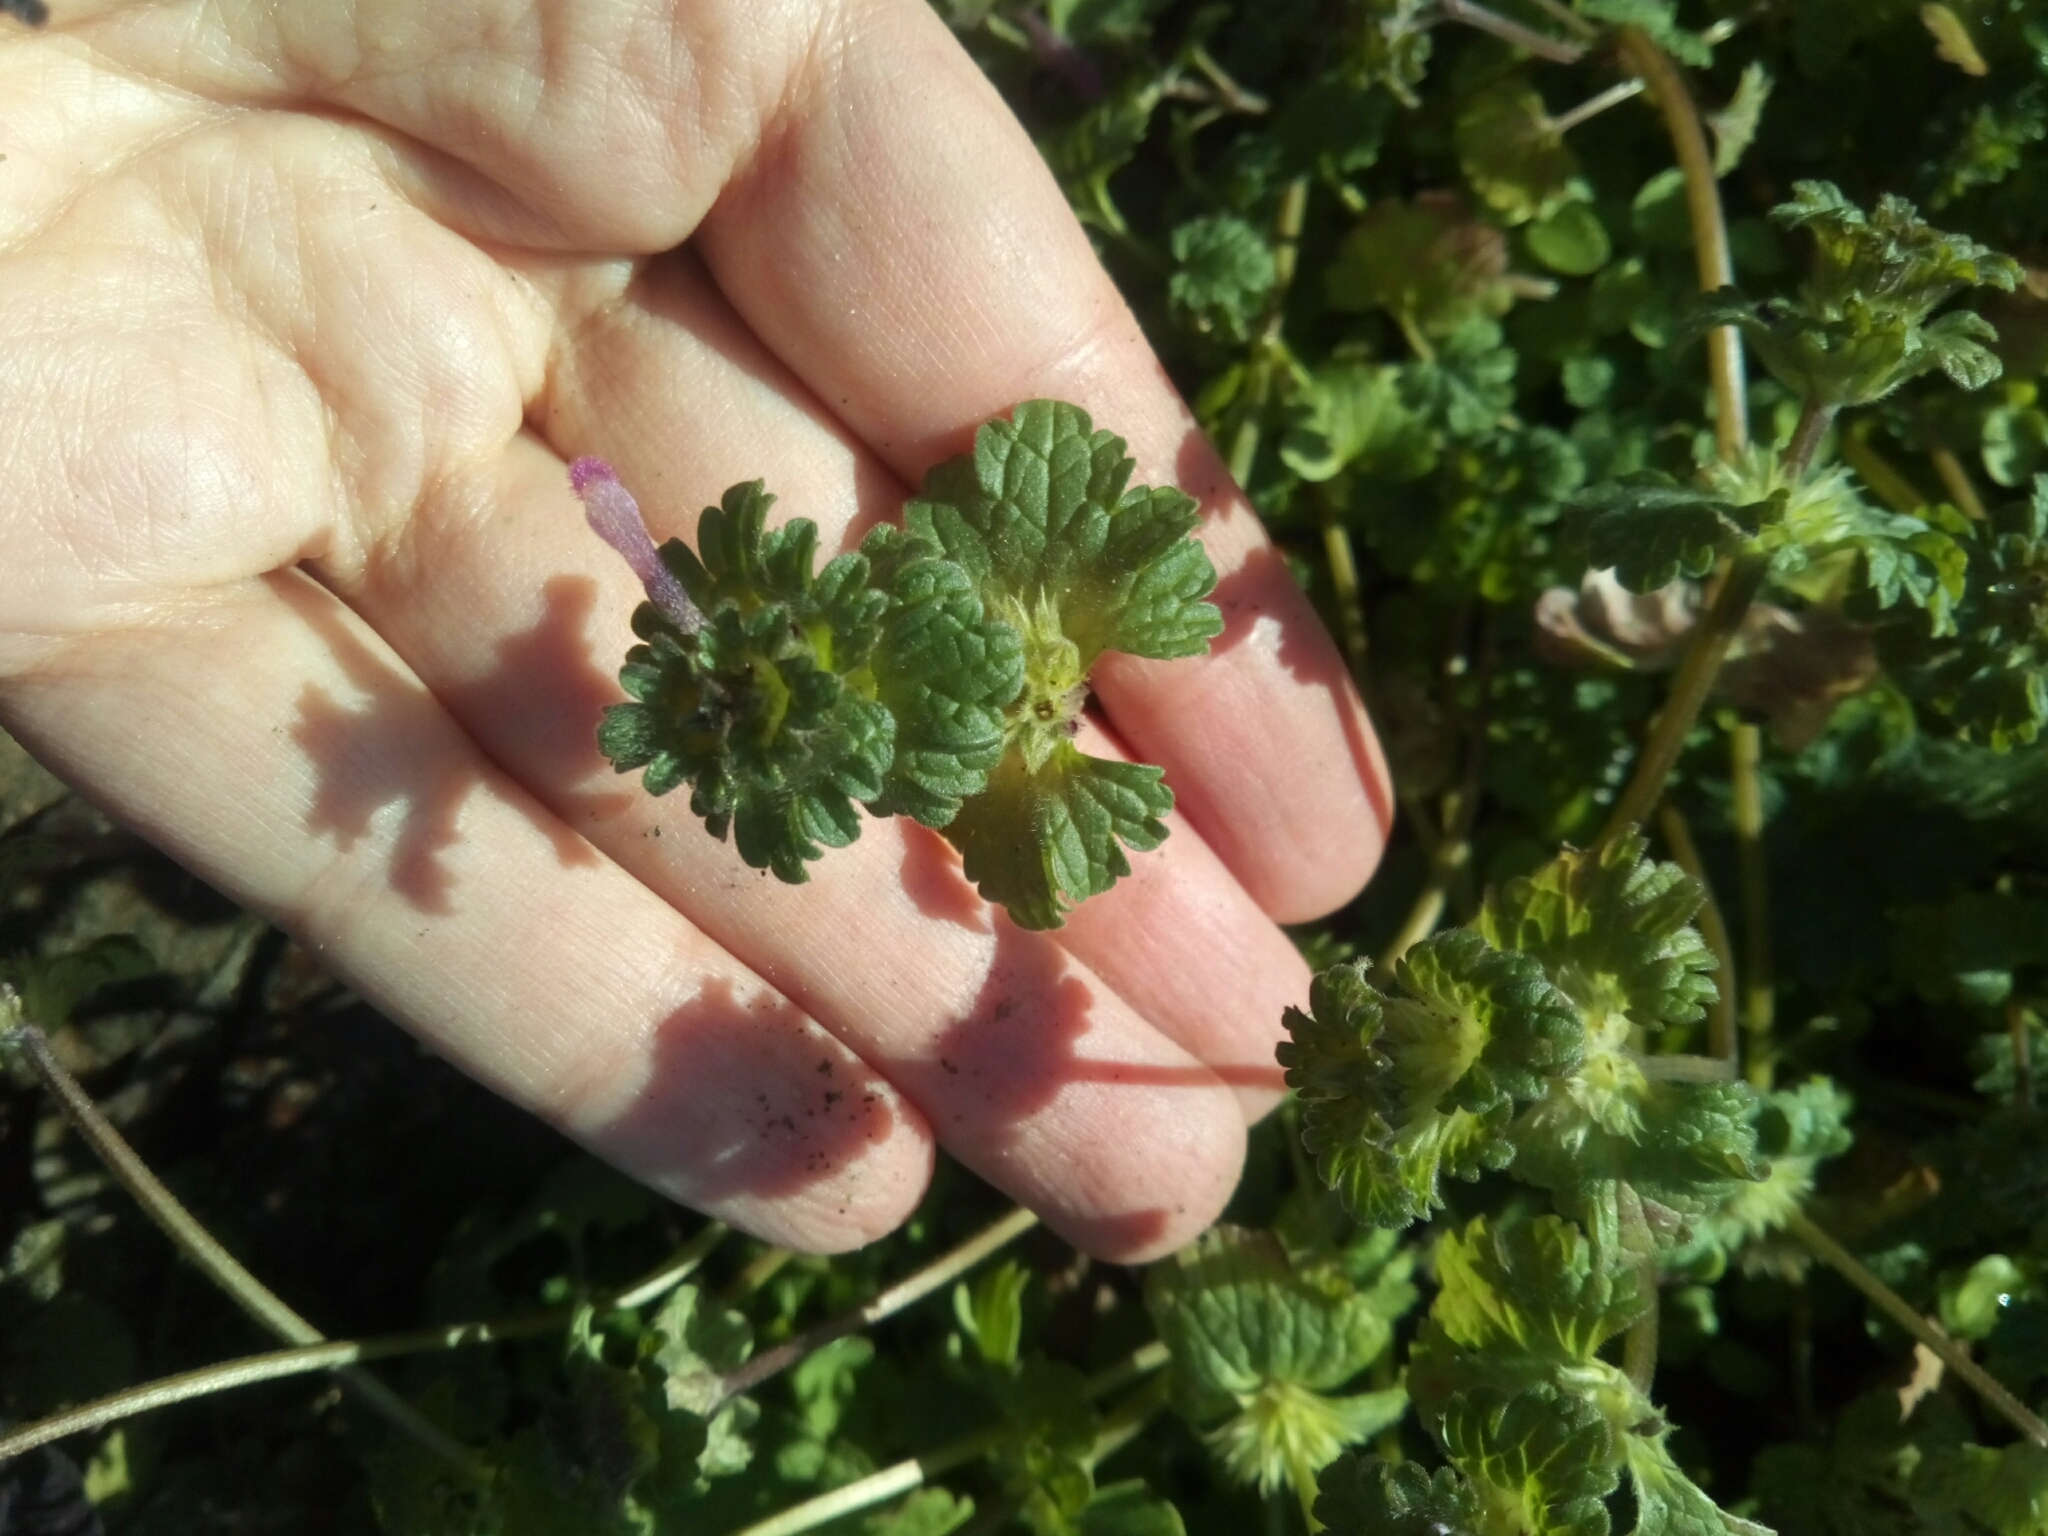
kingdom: Plantae
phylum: Tracheophyta
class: Magnoliopsida
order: Lamiales
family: Lamiaceae
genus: Lamium
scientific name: Lamium amplexicaule
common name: Henbit dead-nettle
